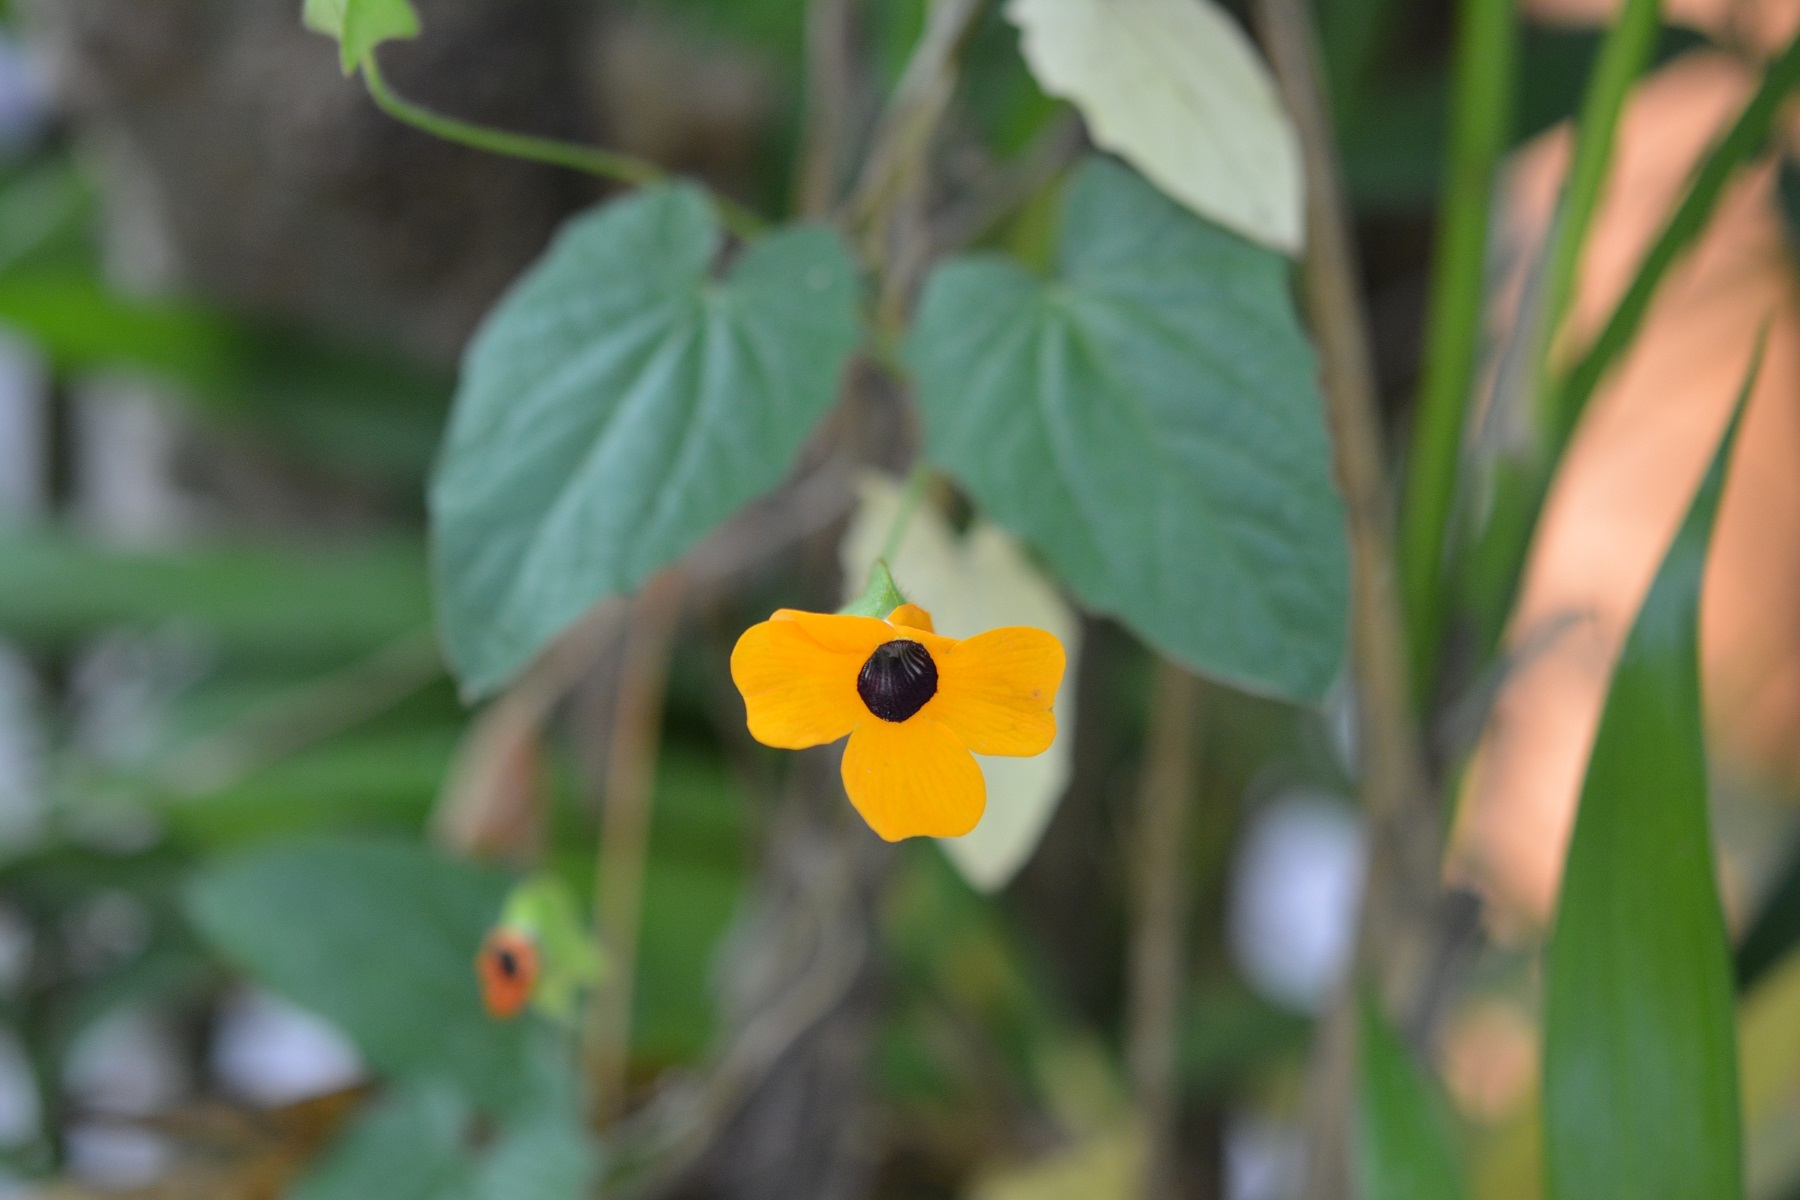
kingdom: Plantae
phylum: Tracheophyta
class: Magnoliopsida
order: Lamiales
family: Acanthaceae
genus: Thunbergia
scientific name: Thunbergia alata
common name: Blackeyed susan vine
